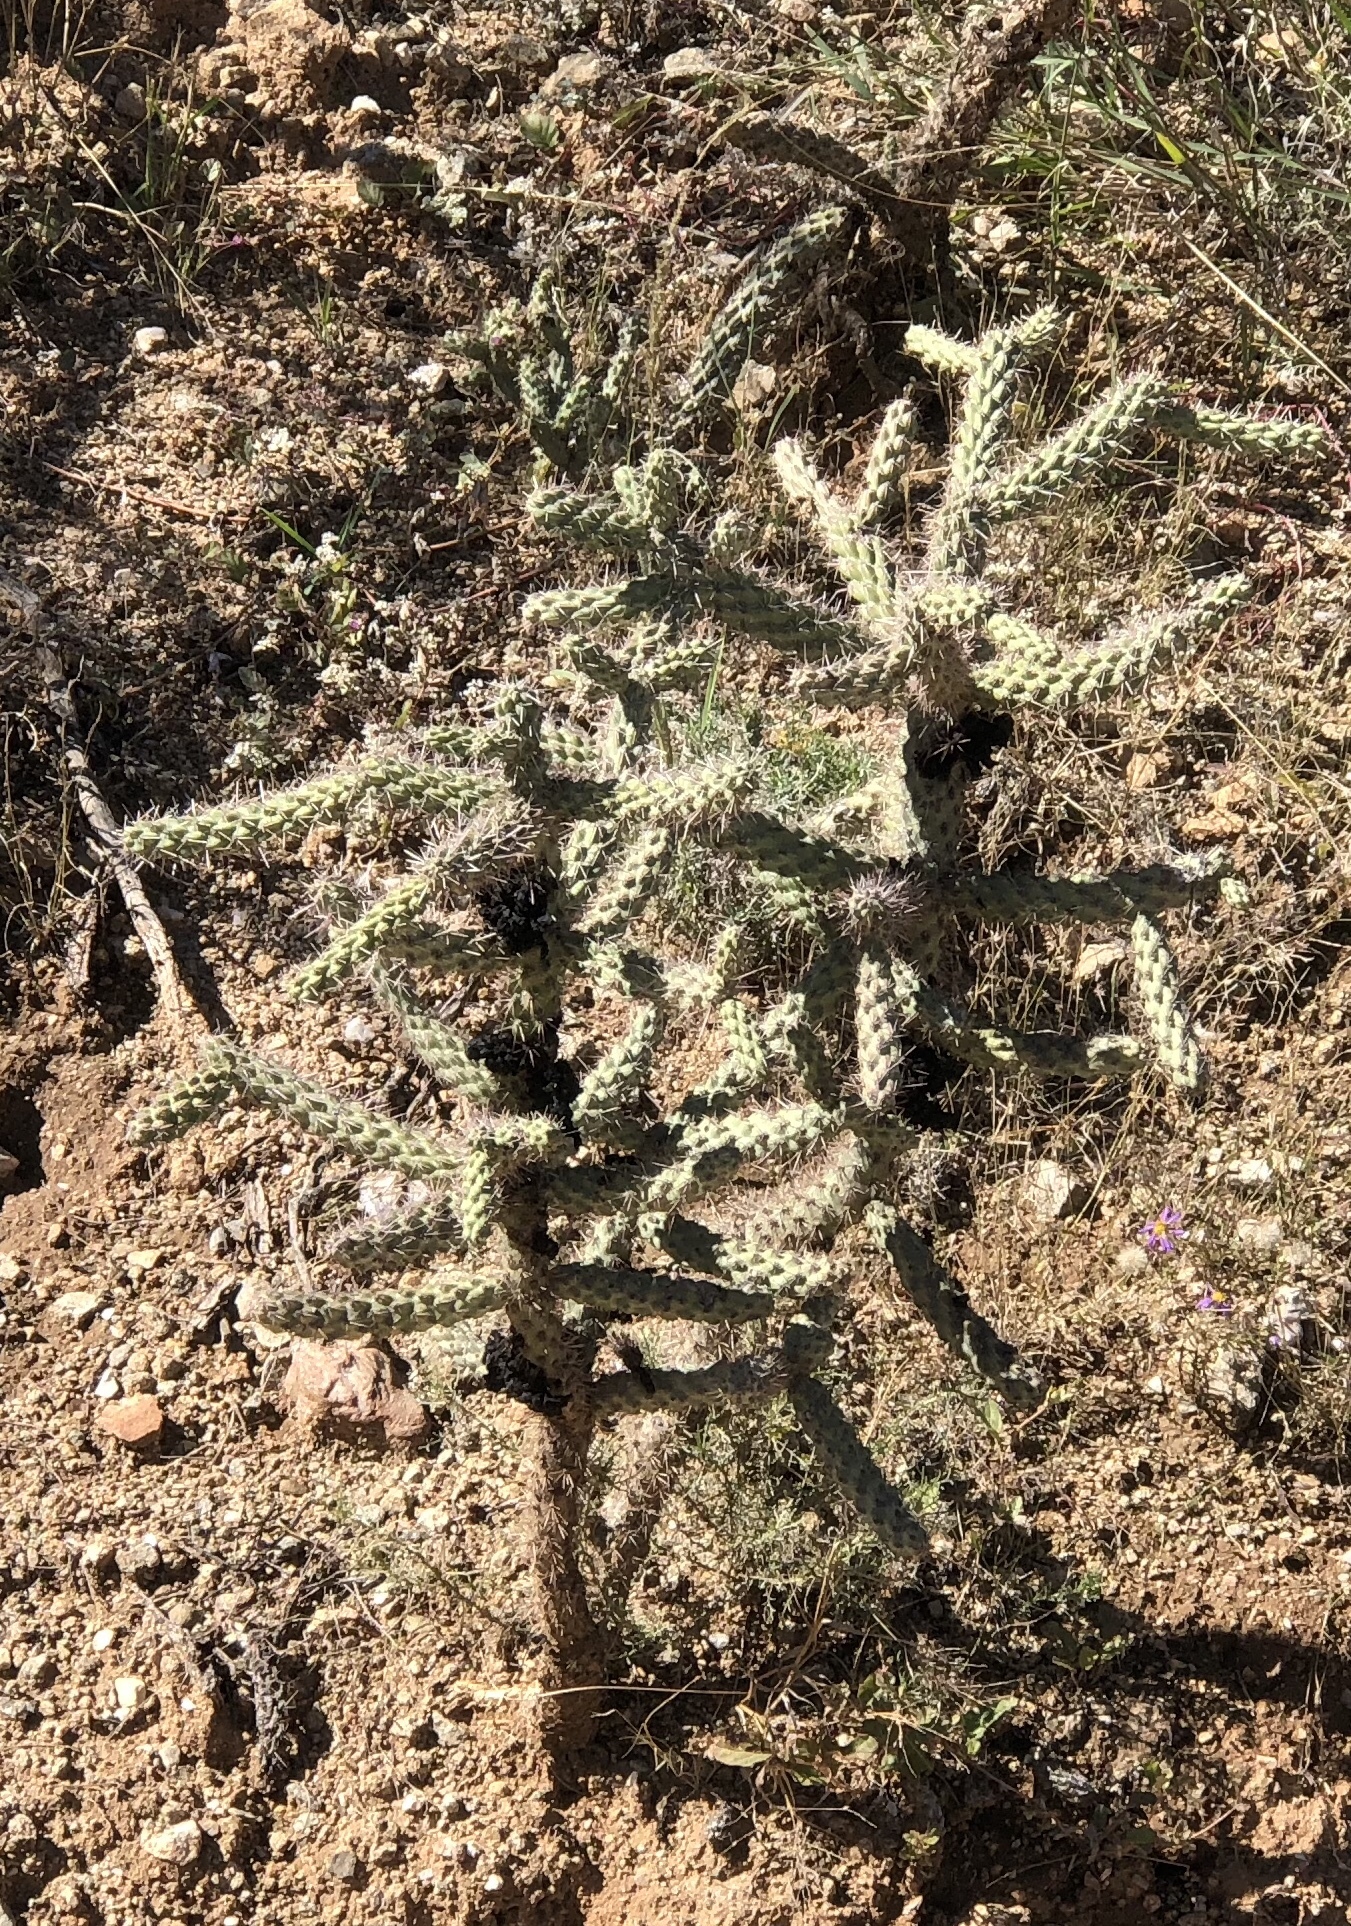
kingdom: Plantae
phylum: Tracheophyta
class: Magnoliopsida
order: Caryophyllales
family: Cactaceae
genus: Cylindropuntia
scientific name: Cylindropuntia imbricata
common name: Candelabrum cactus
